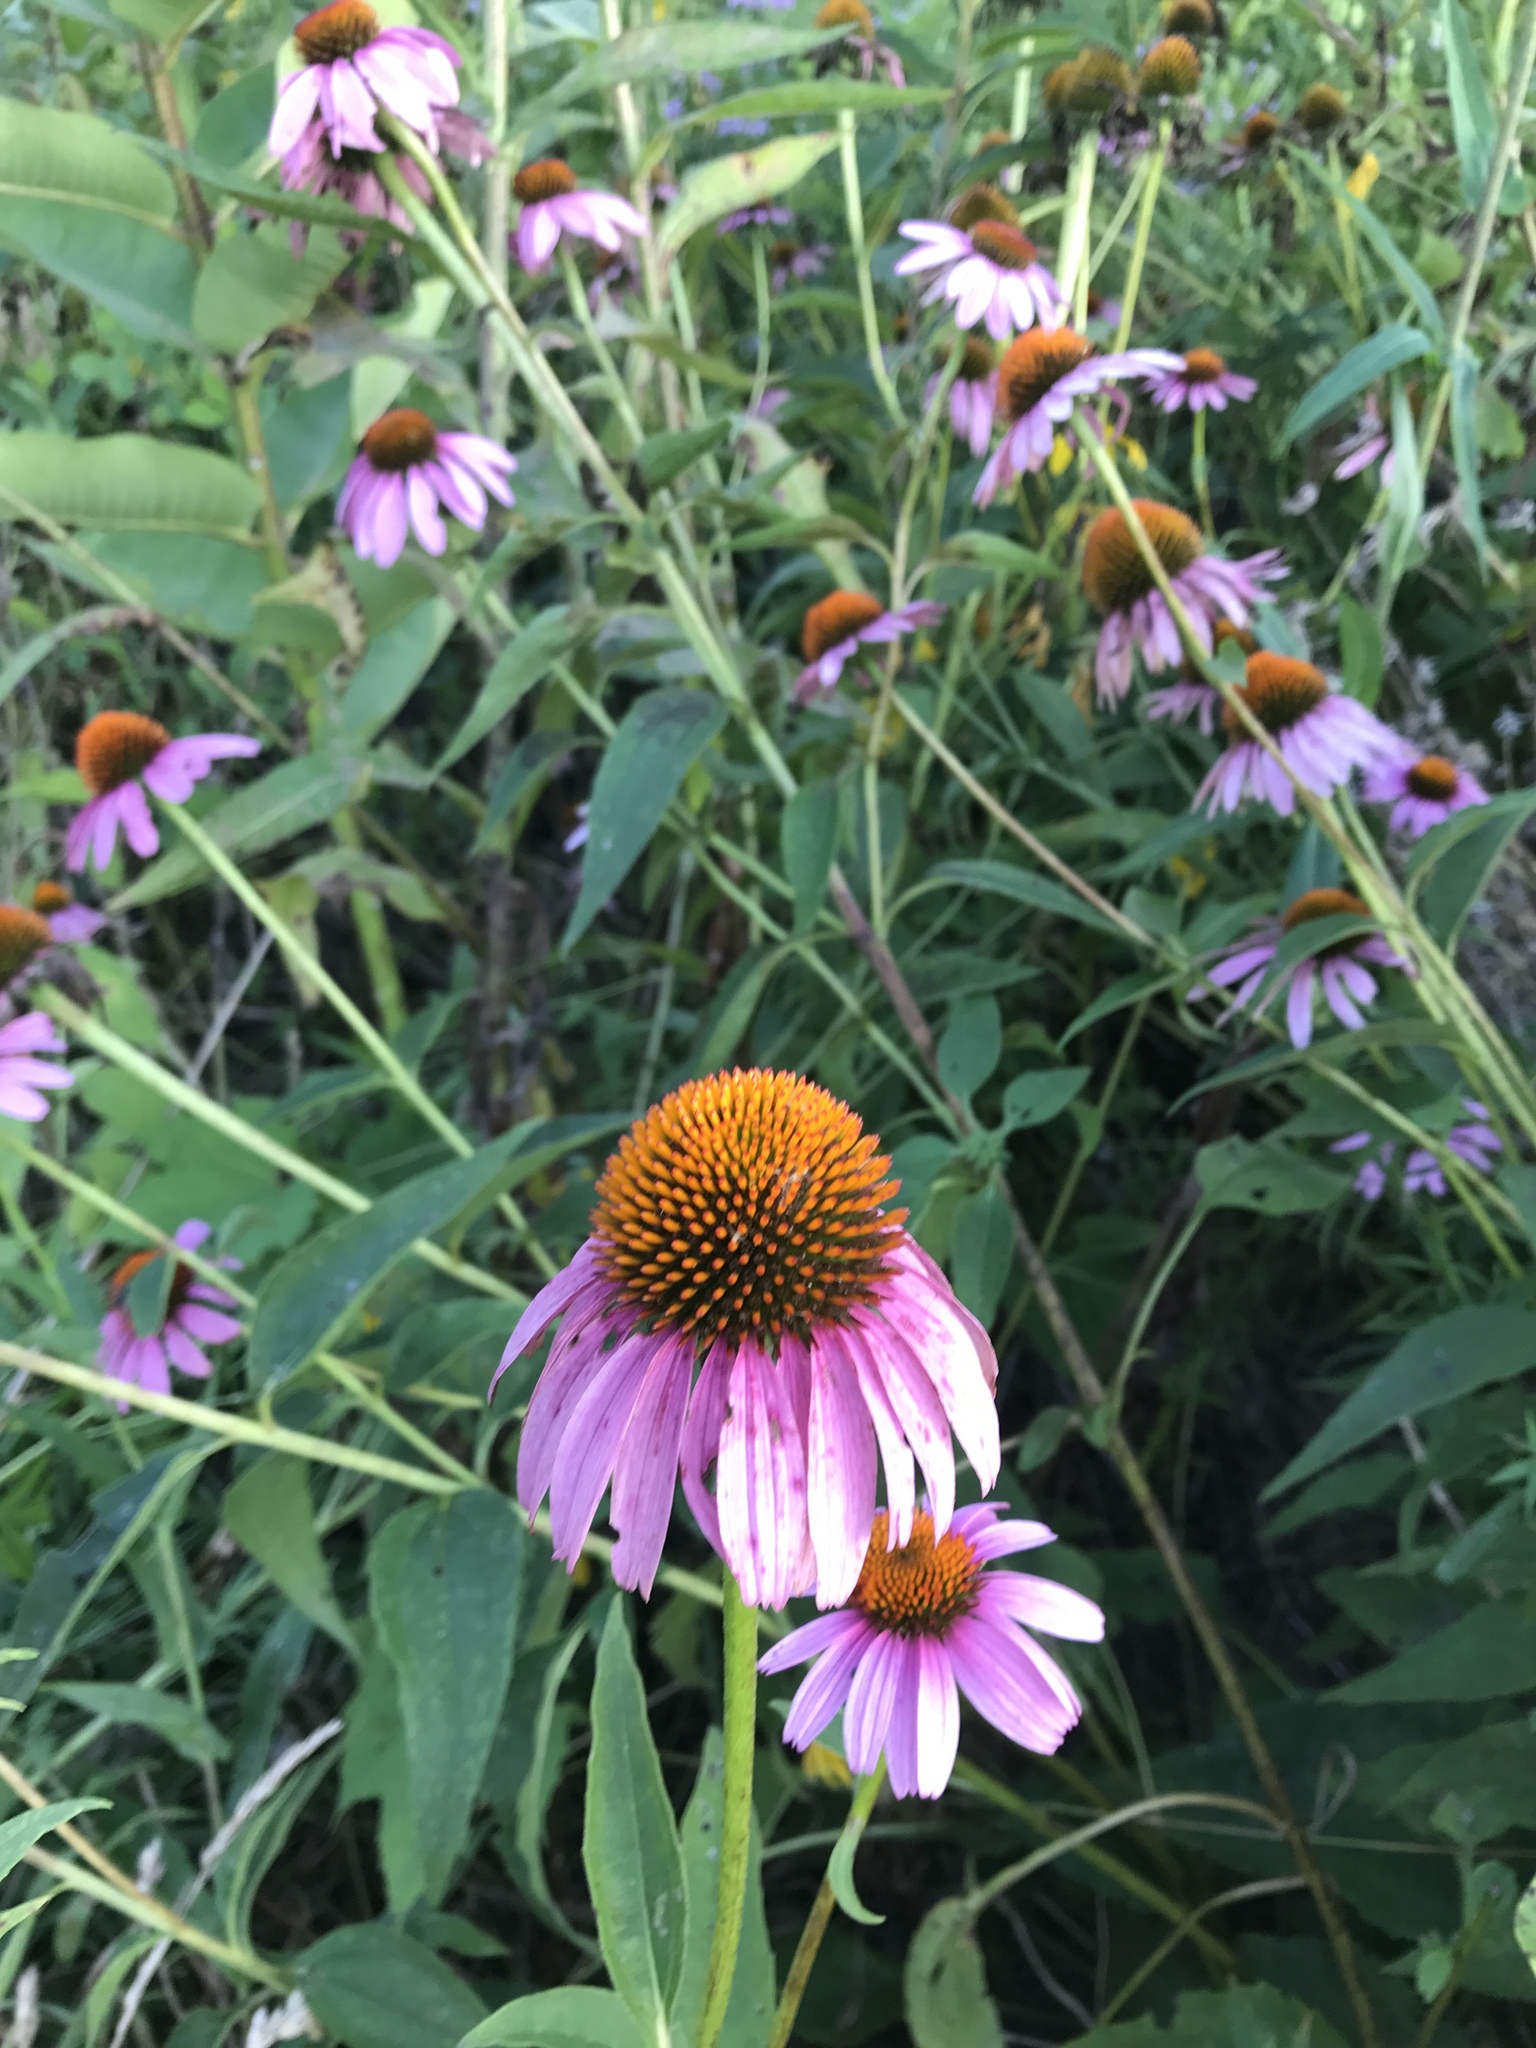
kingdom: Plantae
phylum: Tracheophyta
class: Magnoliopsida
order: Asterales
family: Asteraceae
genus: Echinacea
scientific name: Echinacea purpurea
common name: Broad-leaved purple coneflower
